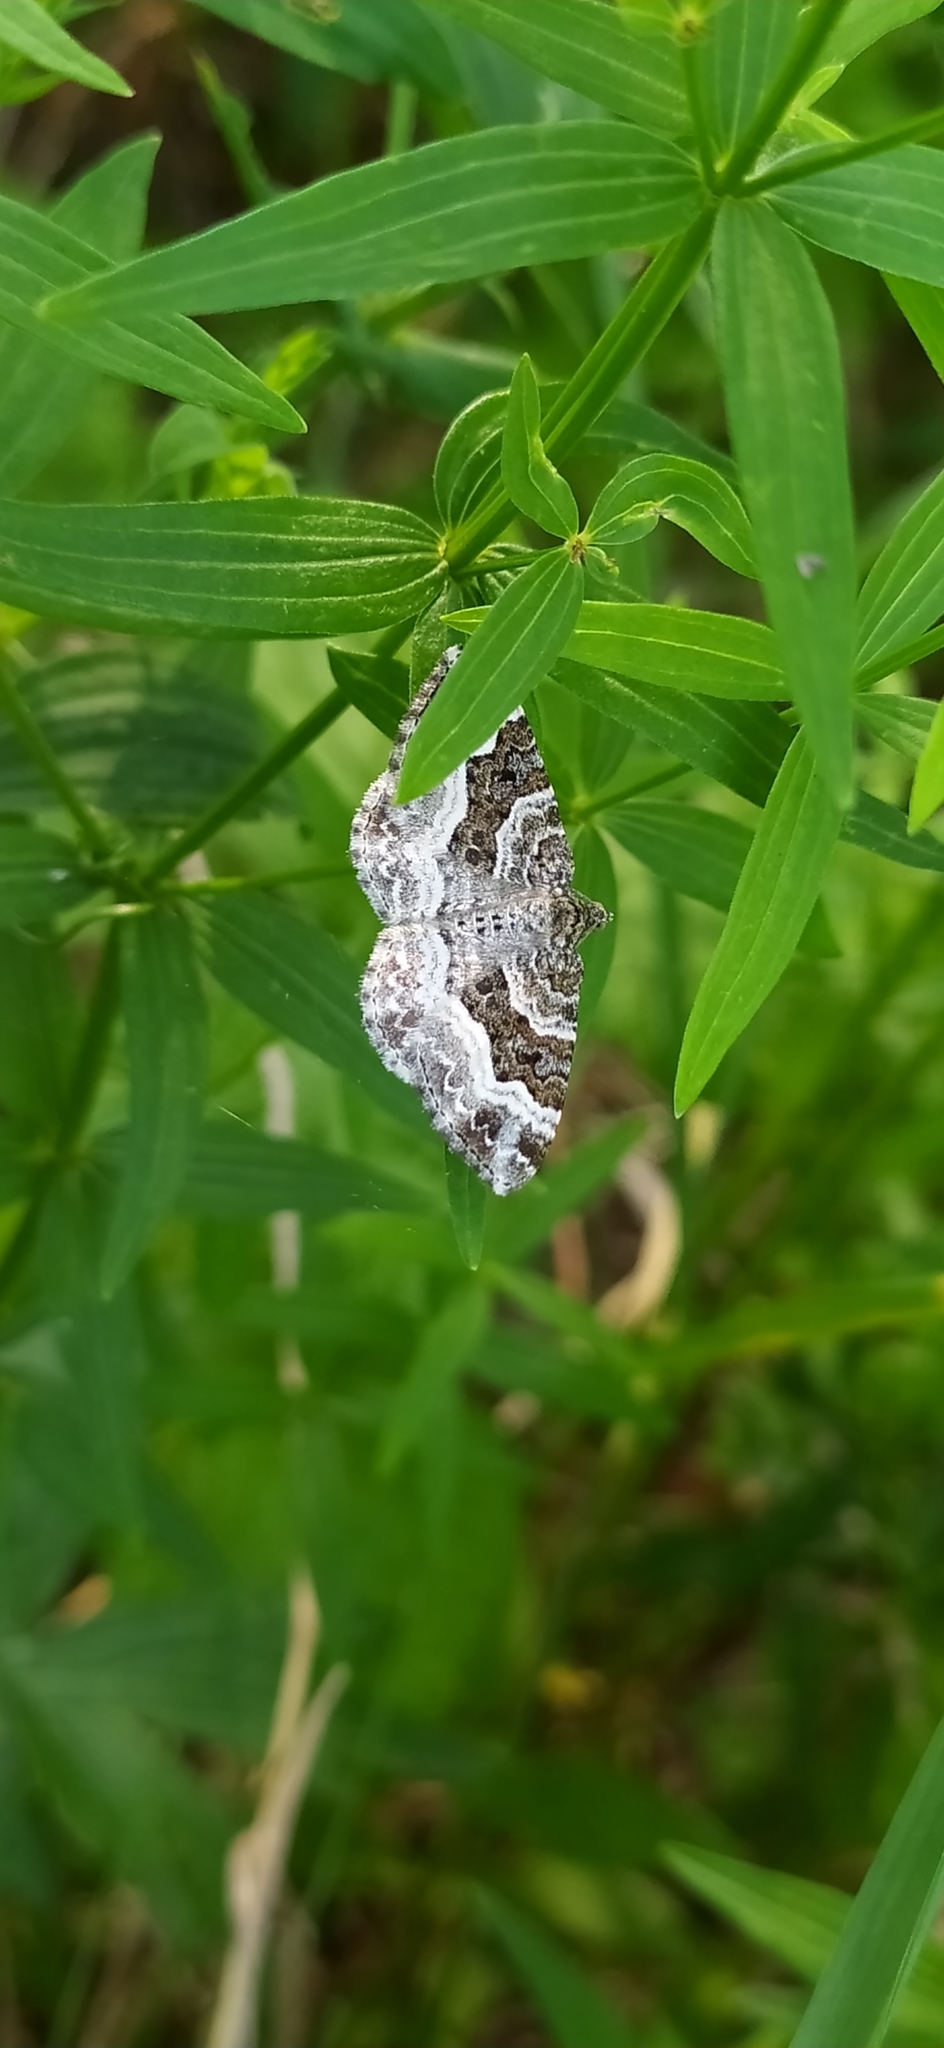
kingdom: Animalia
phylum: Arthropoda
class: Insecta
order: Lepidoptera
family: Geometridae
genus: Epirrhoe
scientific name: Epirrhoe alternata
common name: Common carpet
